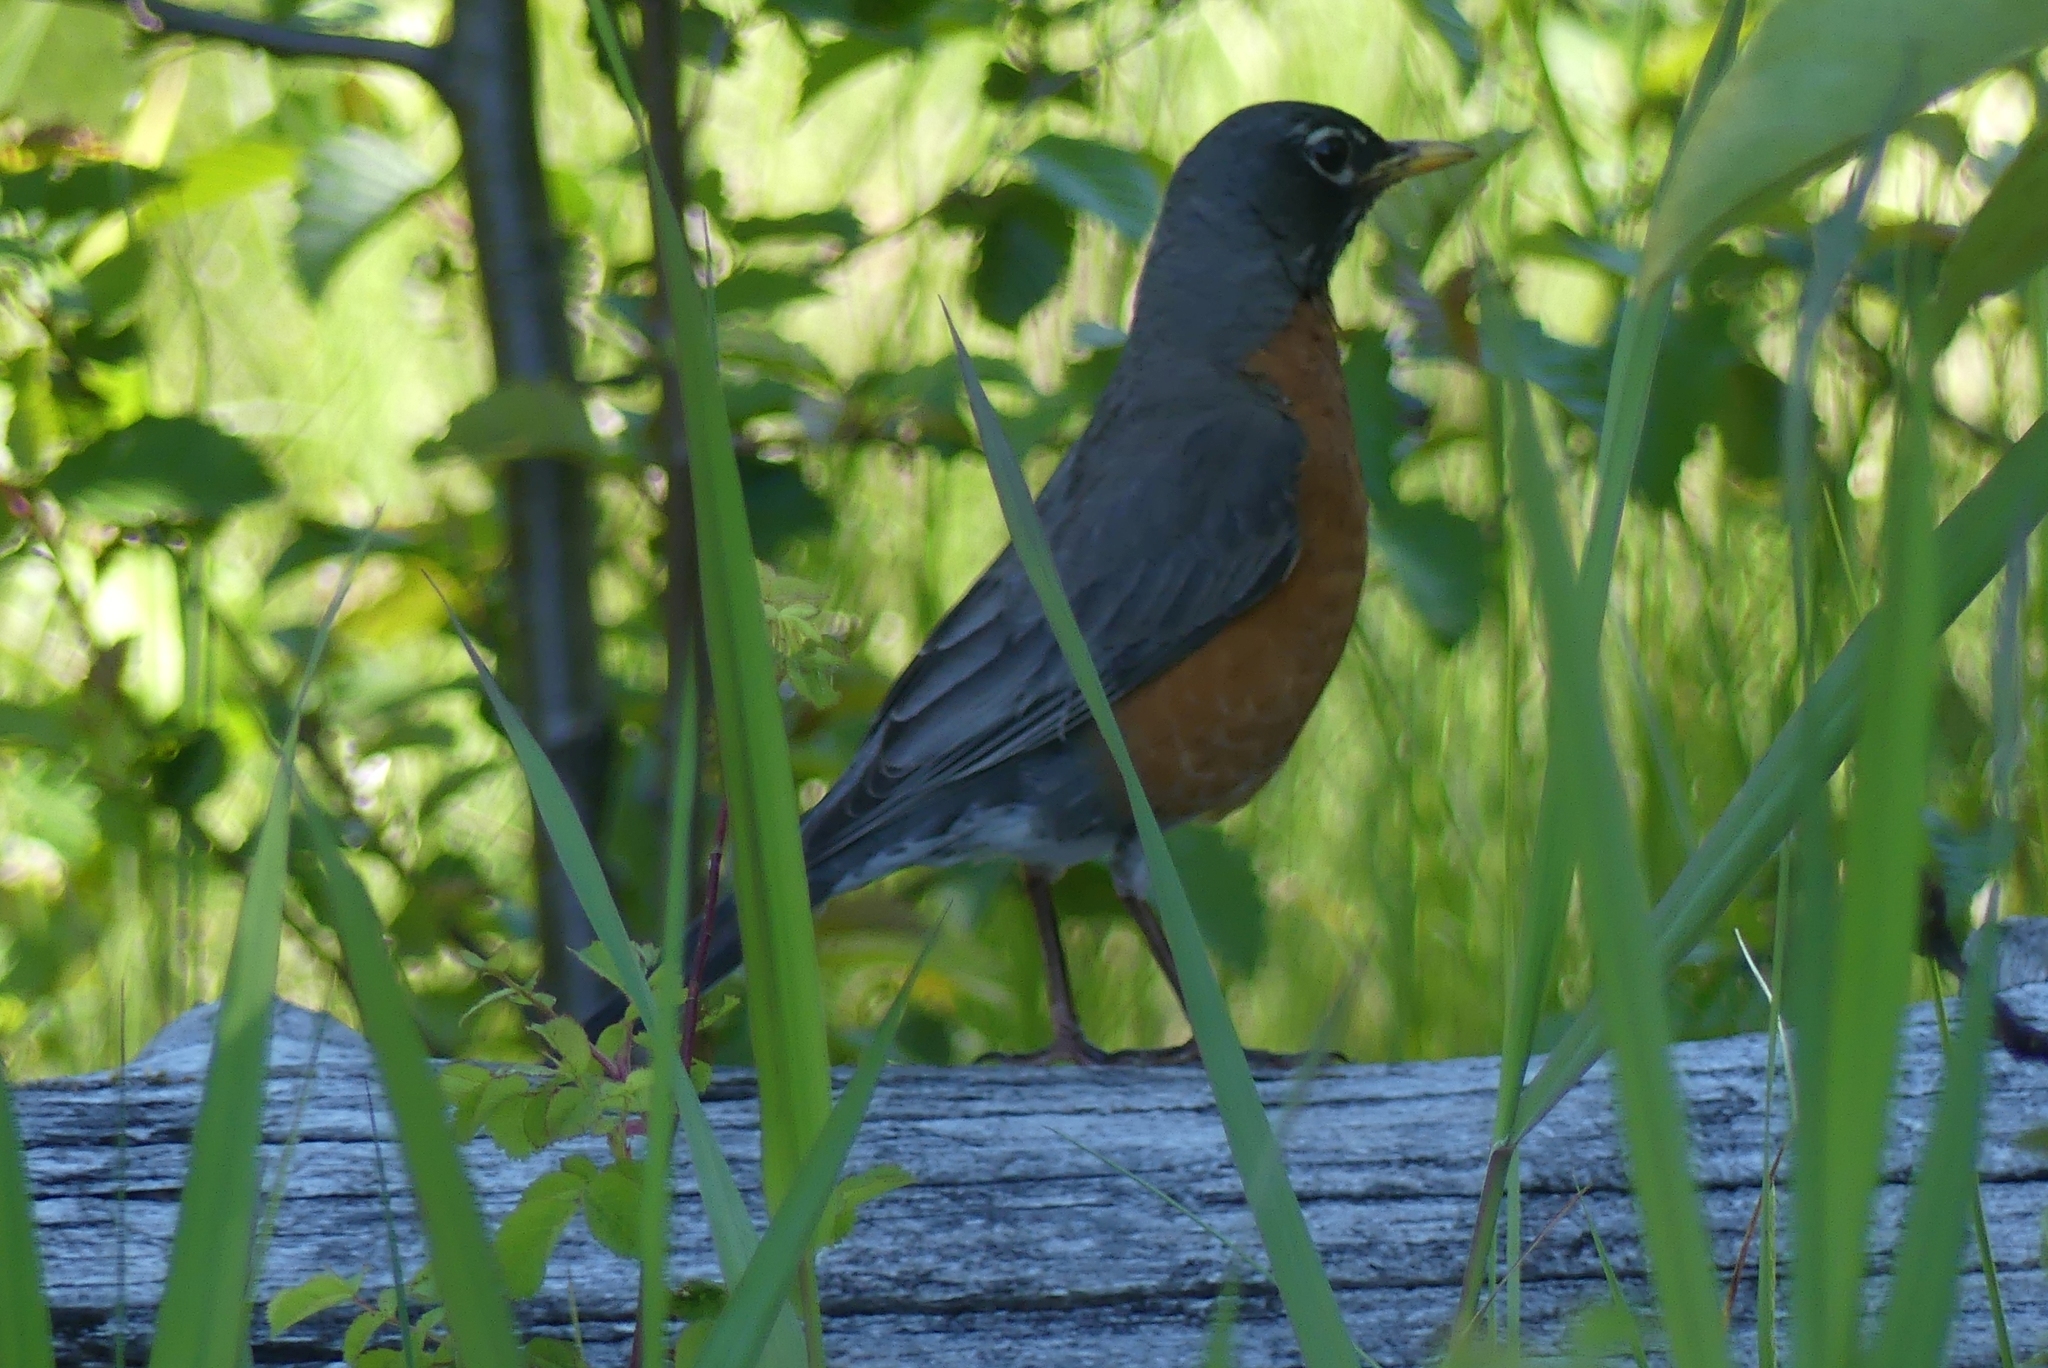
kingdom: Animalia
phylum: Chordata
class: Aves
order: Passeriformes
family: Turdidae
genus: Turdus
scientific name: Turdus migratorius
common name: American robin
